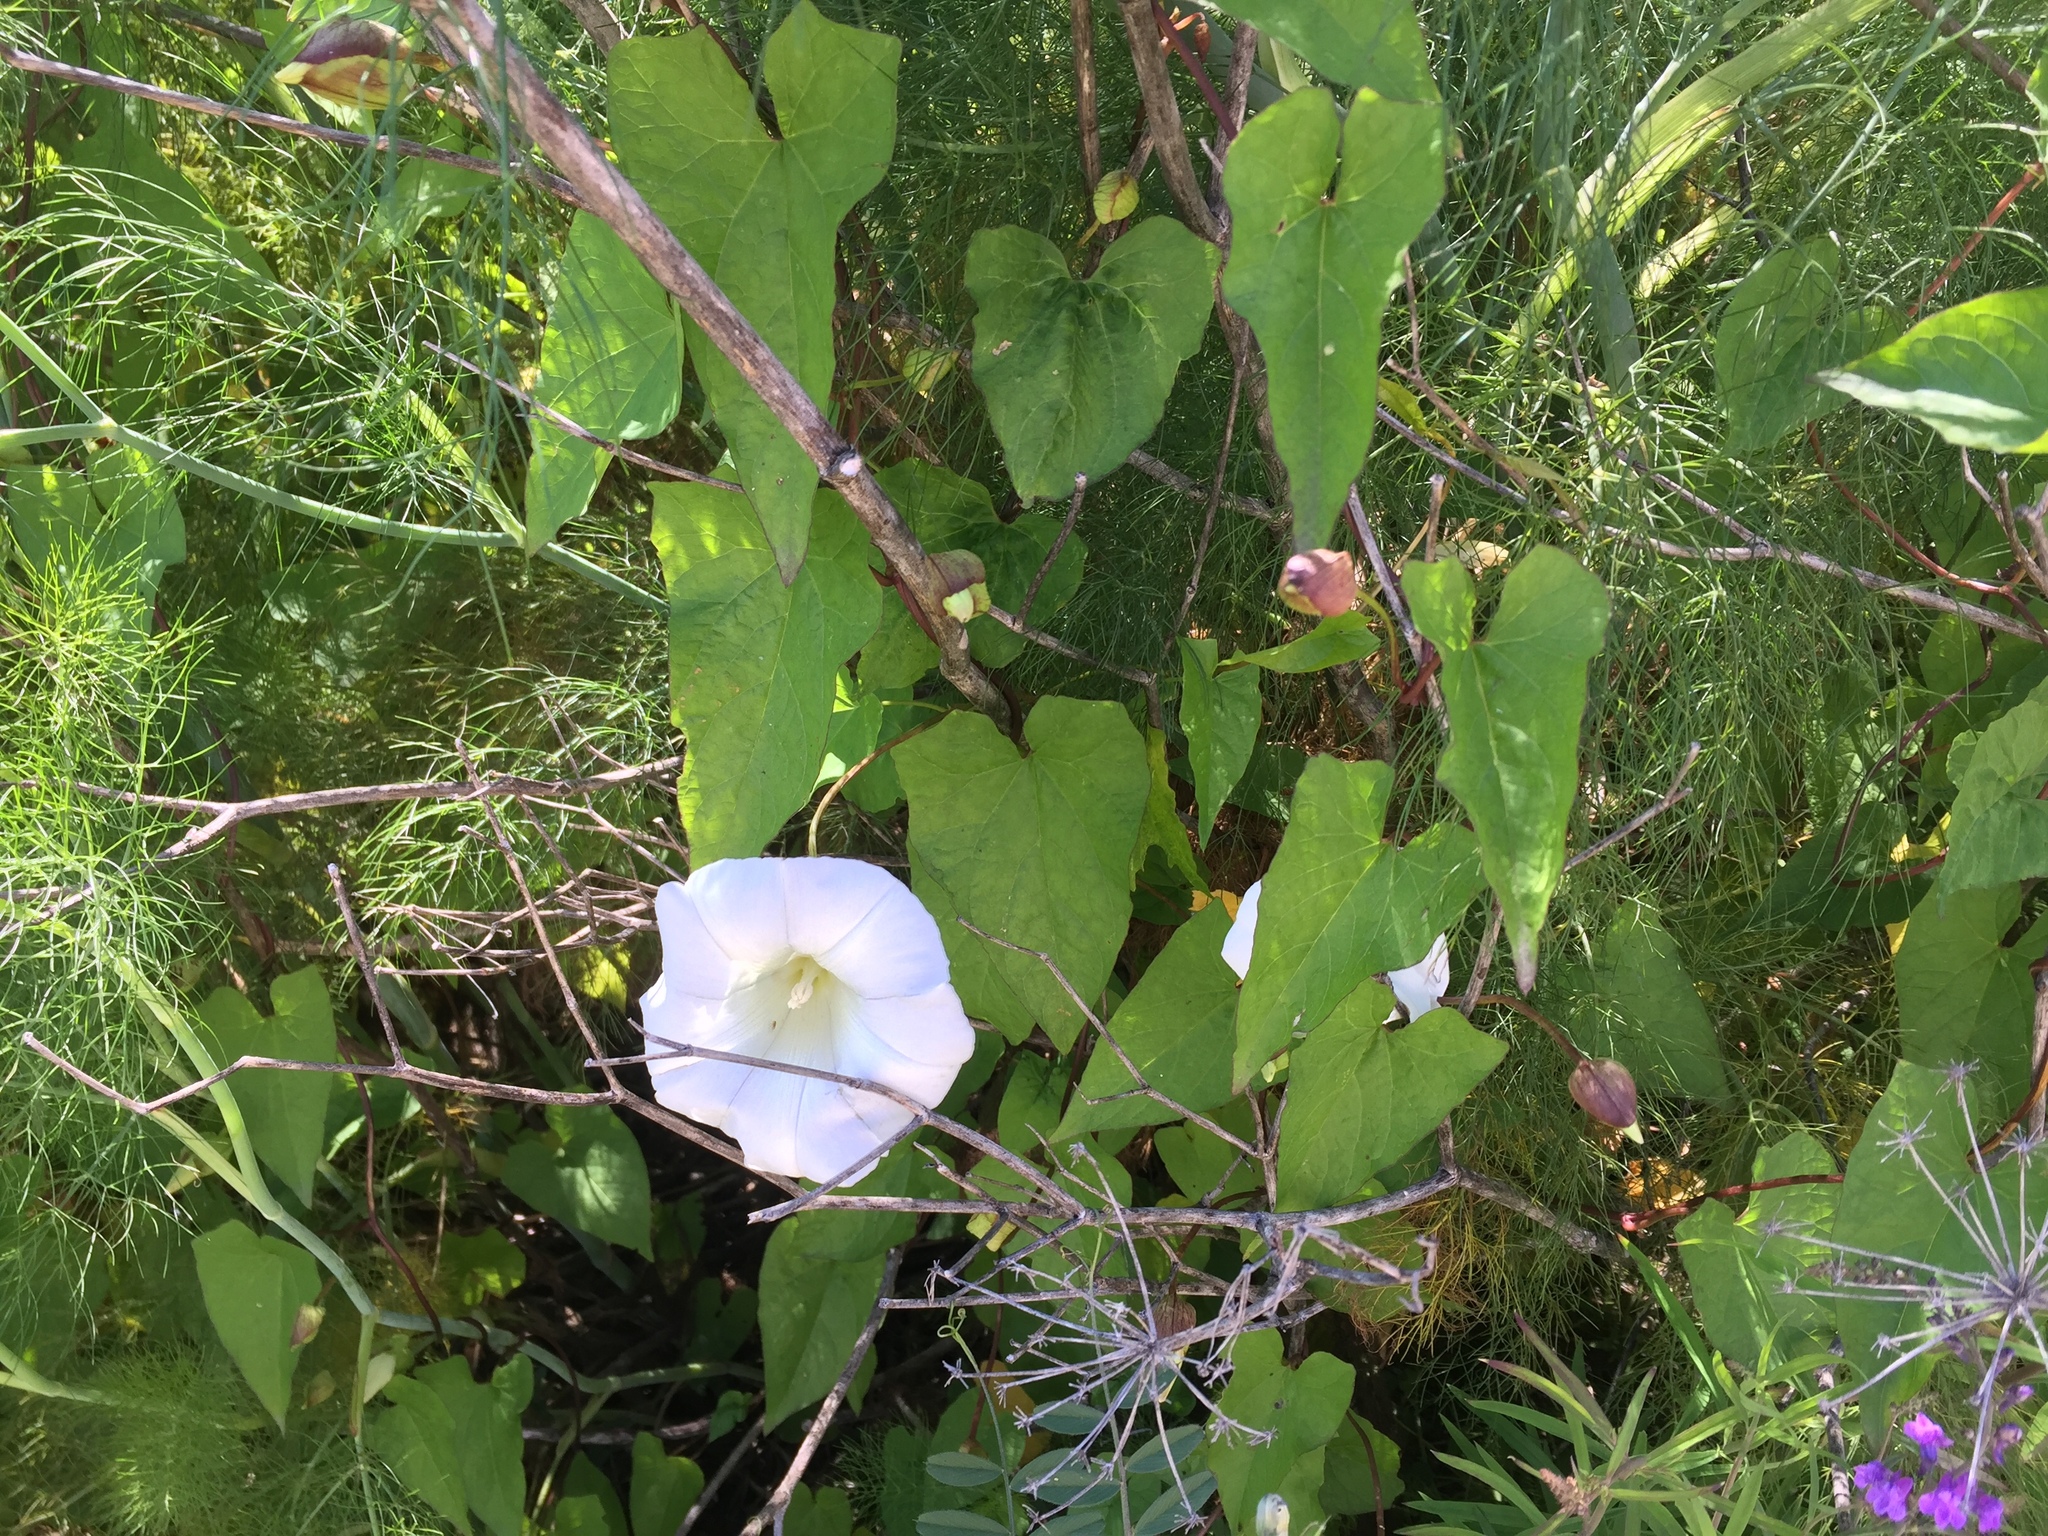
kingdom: Plantae
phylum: Tracheophyta
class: Magnoliopsida
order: Solanales
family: Convolvulaceae
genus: Calystegia
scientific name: Calystegia silvatica
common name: Large bindweed
